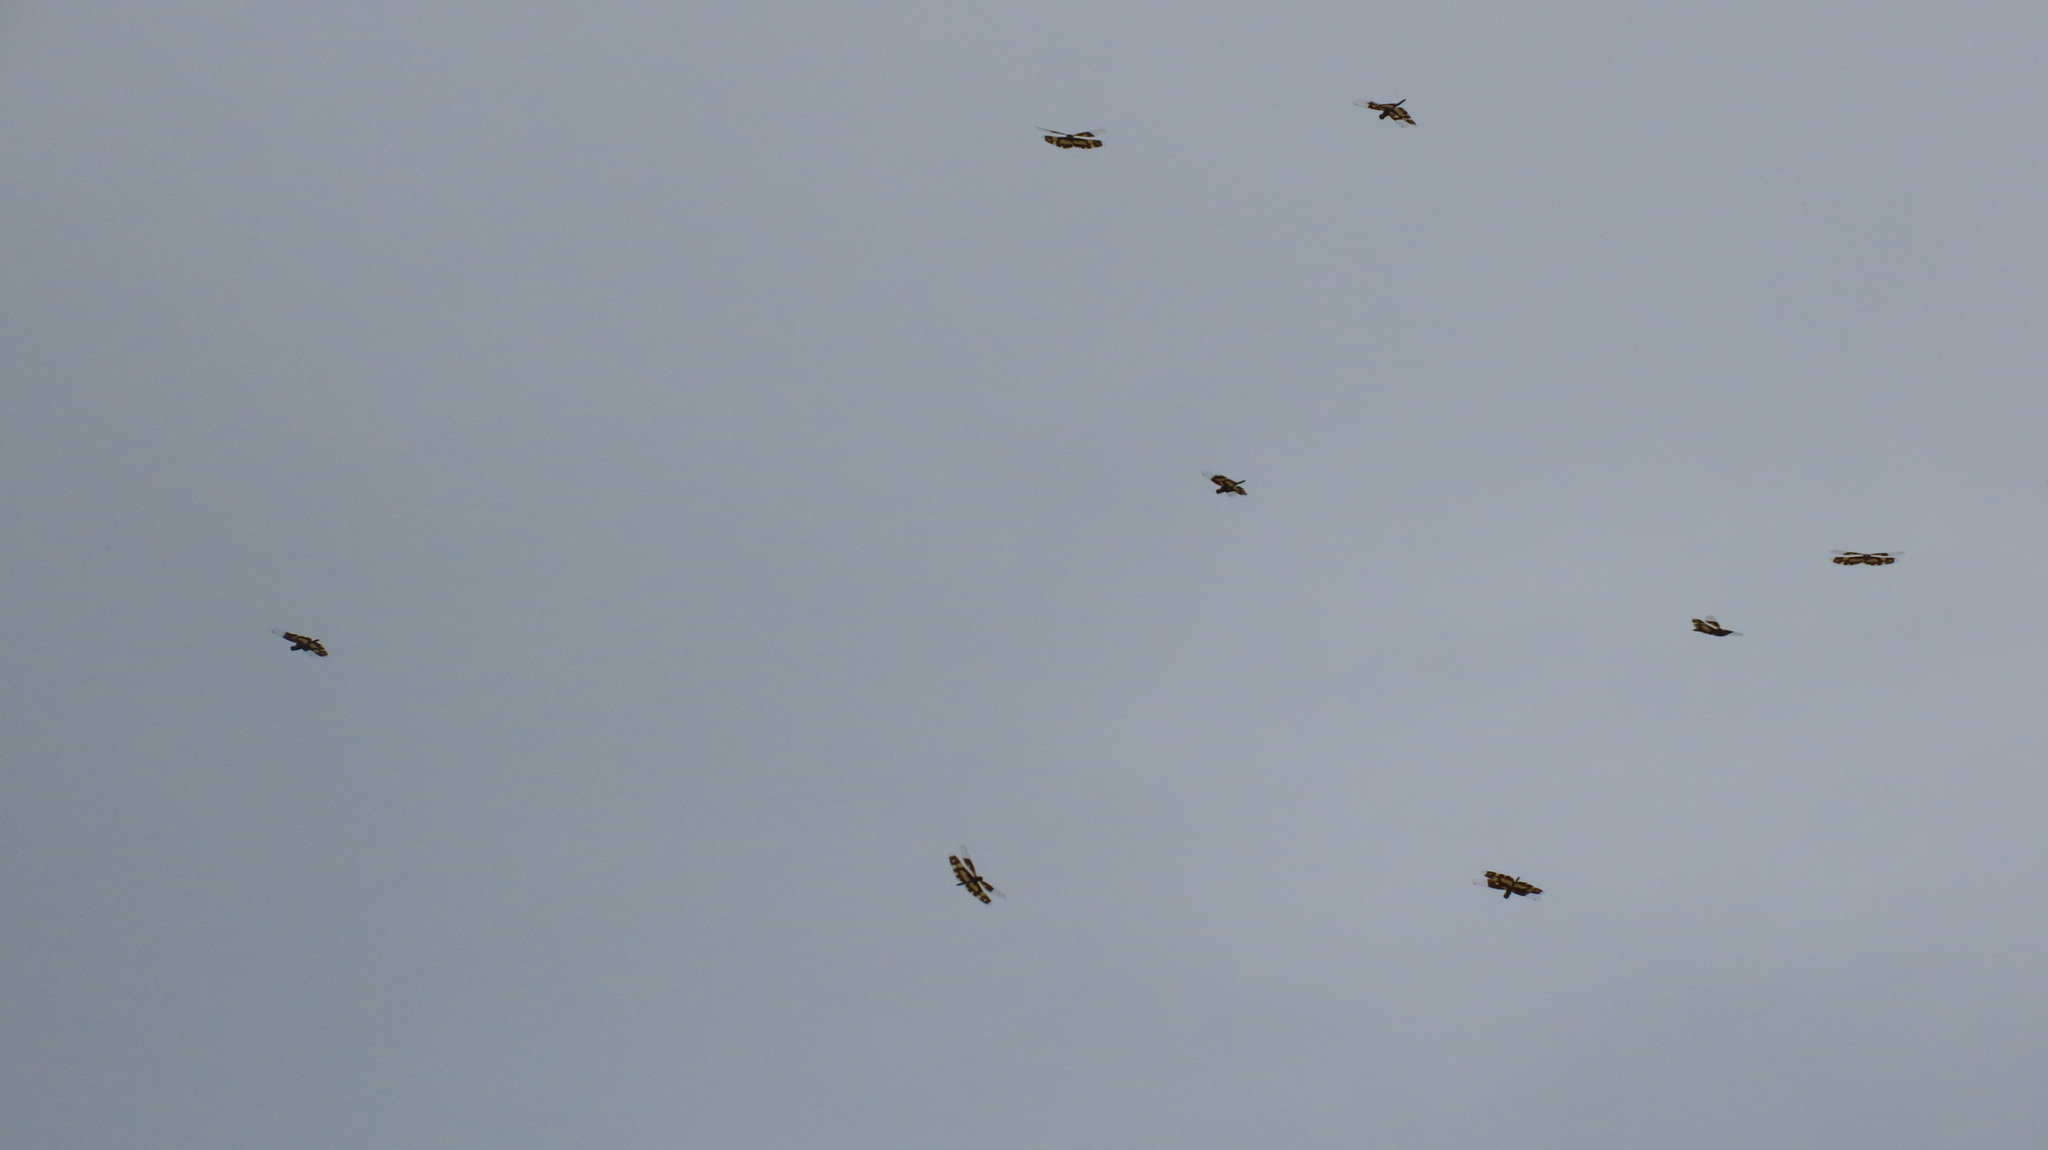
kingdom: Animalia
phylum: Arthropoda
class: Insecta
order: Odonata
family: Libellulidae
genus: Rhyothemis
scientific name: Rhyothemis variegata
